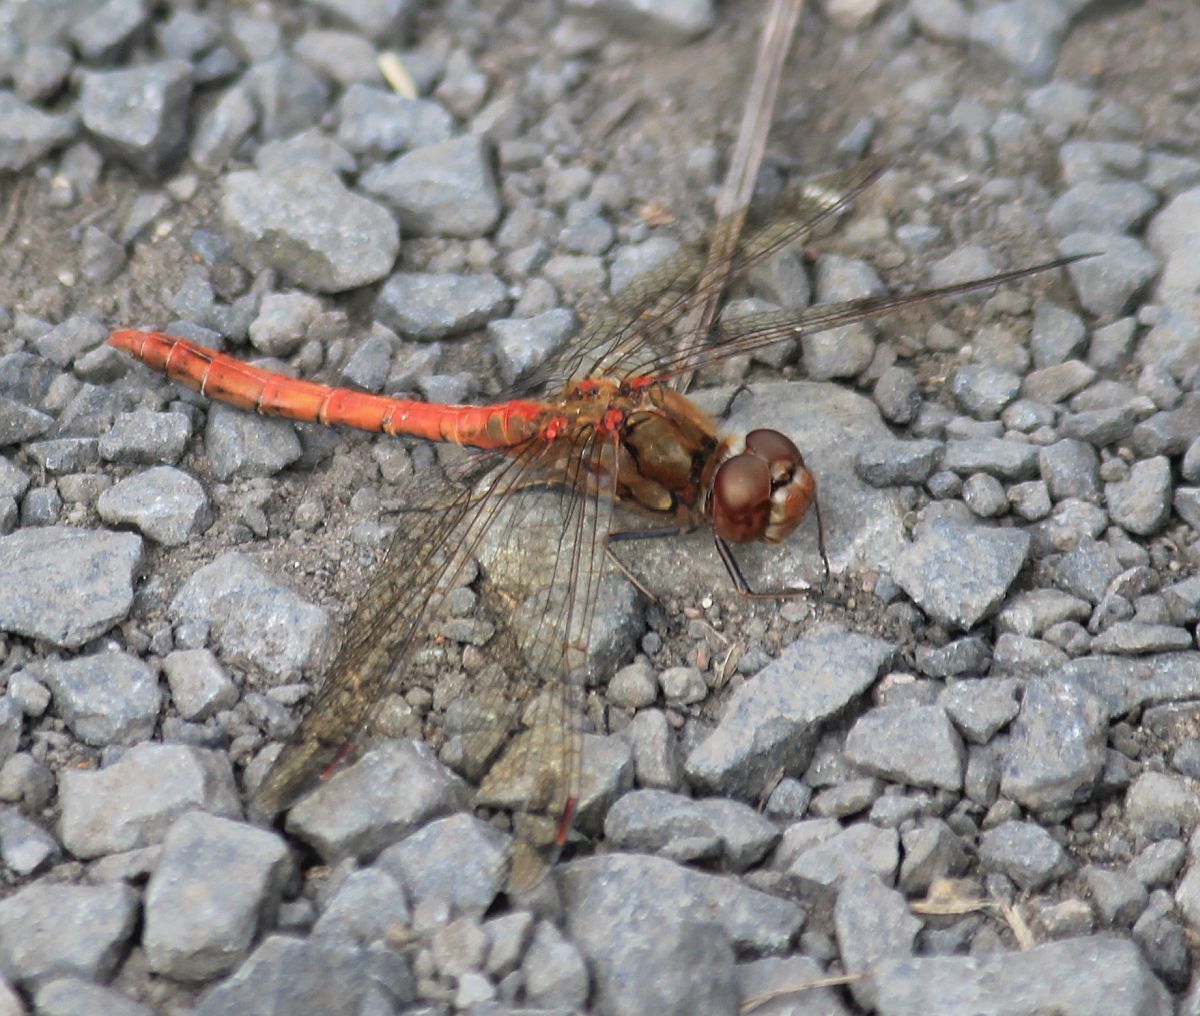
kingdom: Animalia
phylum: Arthropoda
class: Insecta
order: Odonata
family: Libellulidae
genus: Sympetrum
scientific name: Sympetrum striolatum
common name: Common darter
